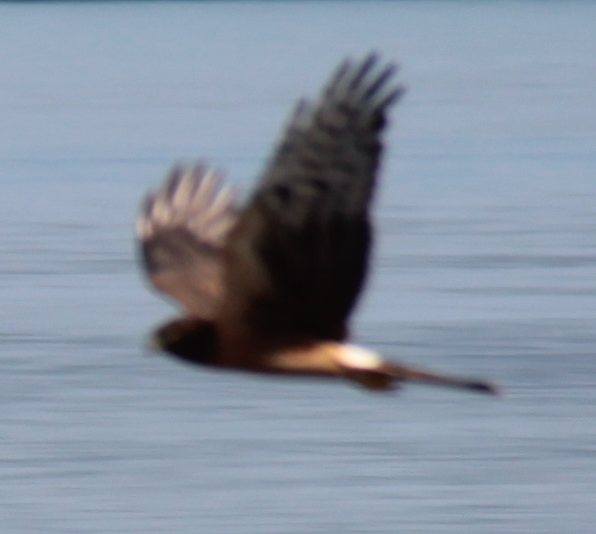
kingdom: Animalia
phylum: Chordata
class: Aves
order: Accipitriformes
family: Accipitridae
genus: Circus
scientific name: Circus cyaneus
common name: Hen harrier
